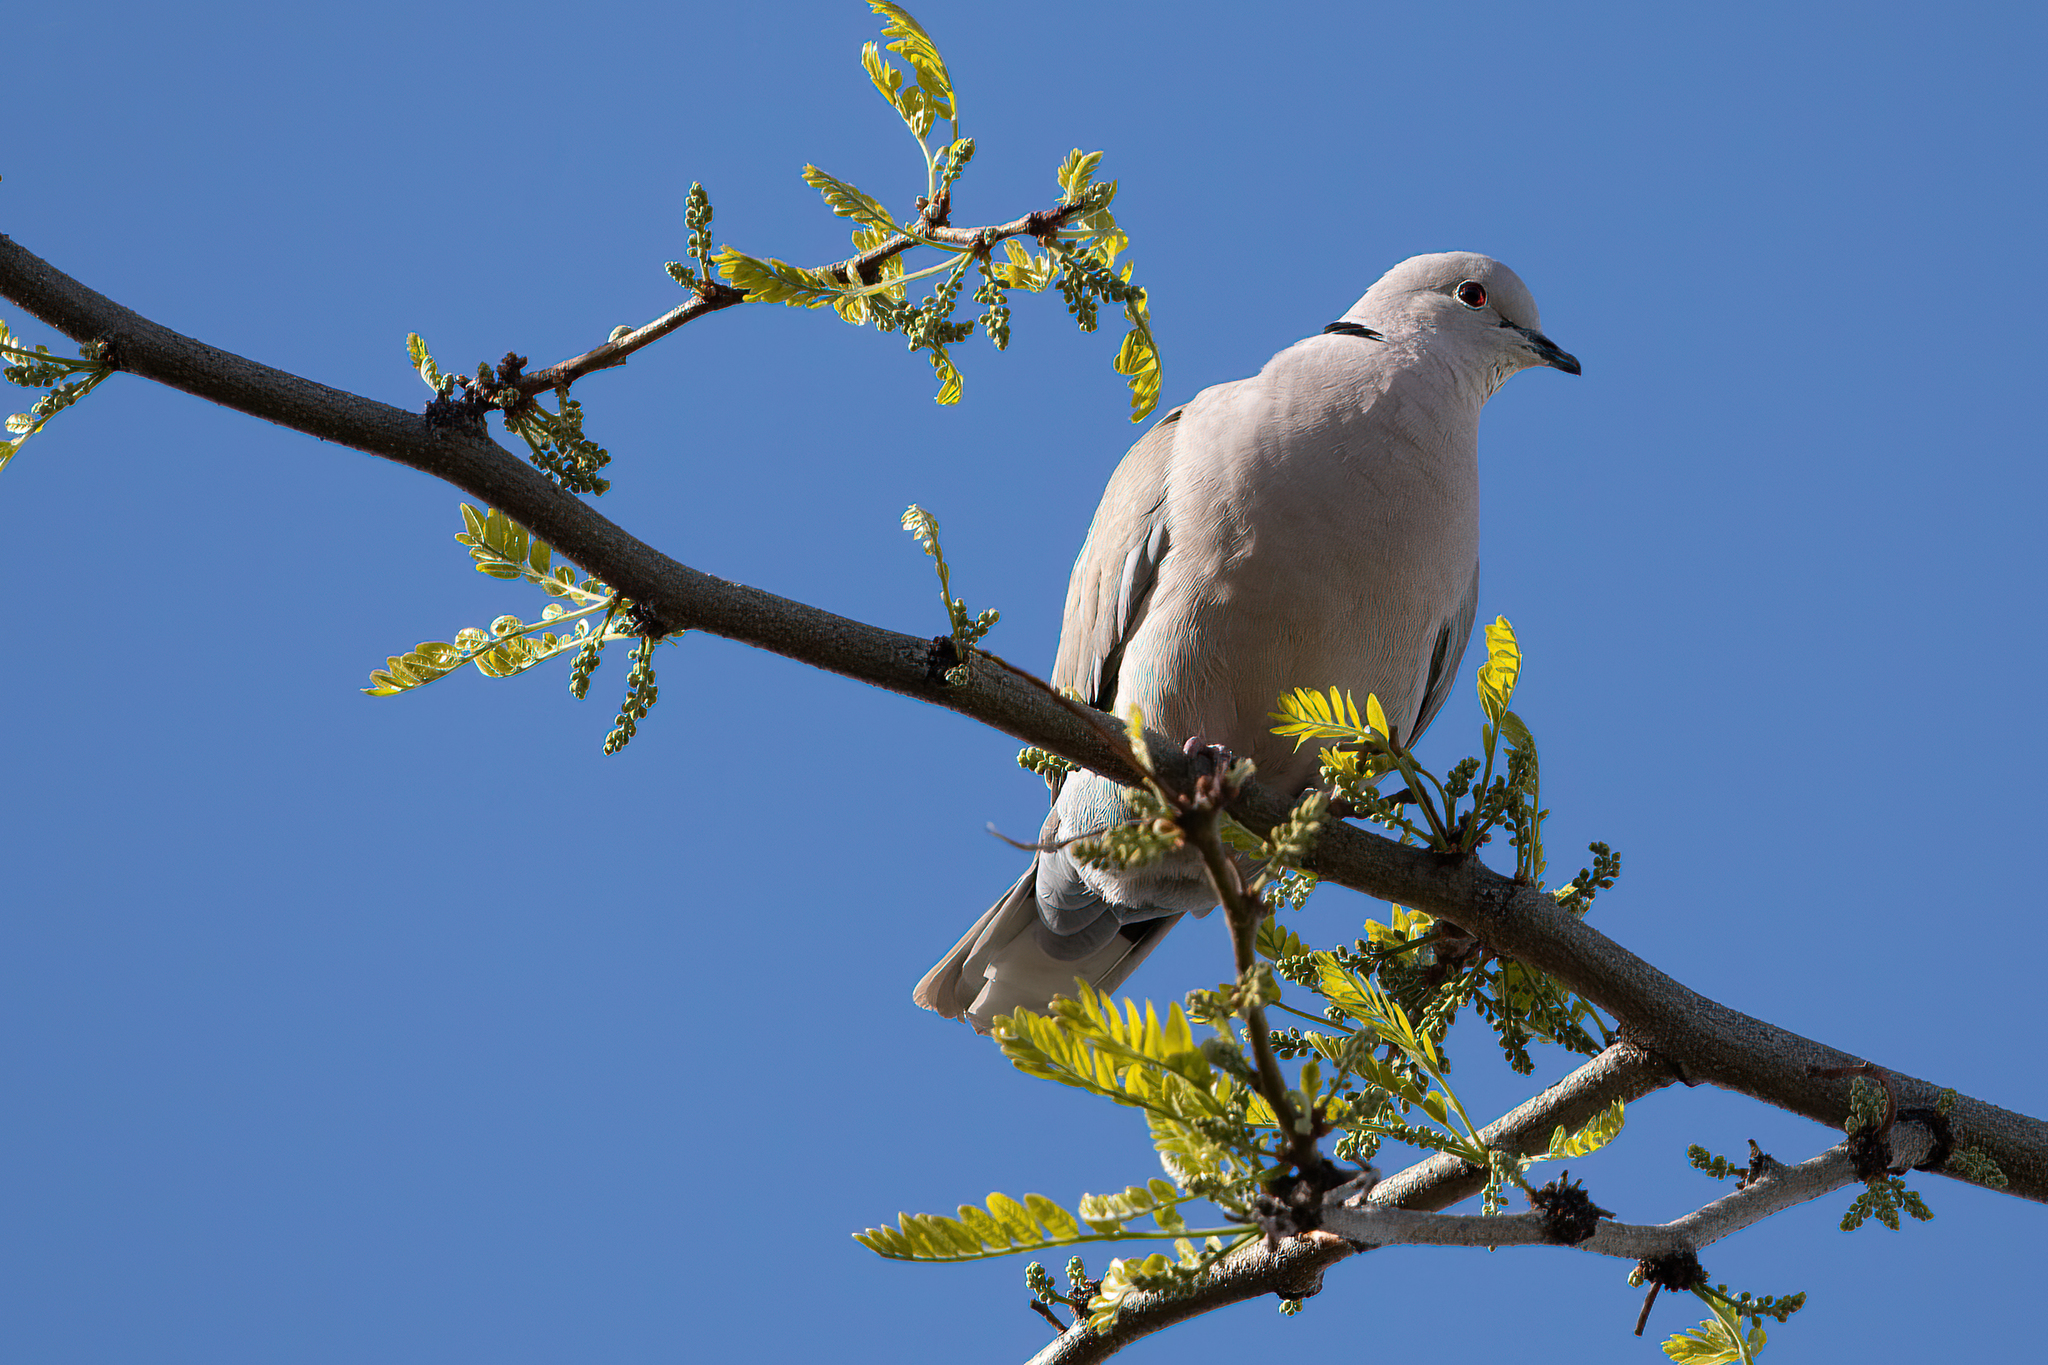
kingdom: Animalia
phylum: Chordata
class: Aves
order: Columbiformes
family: Columbidae
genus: Streptopelia
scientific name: Streptopelia decaocto
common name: Eurasian collared dove
